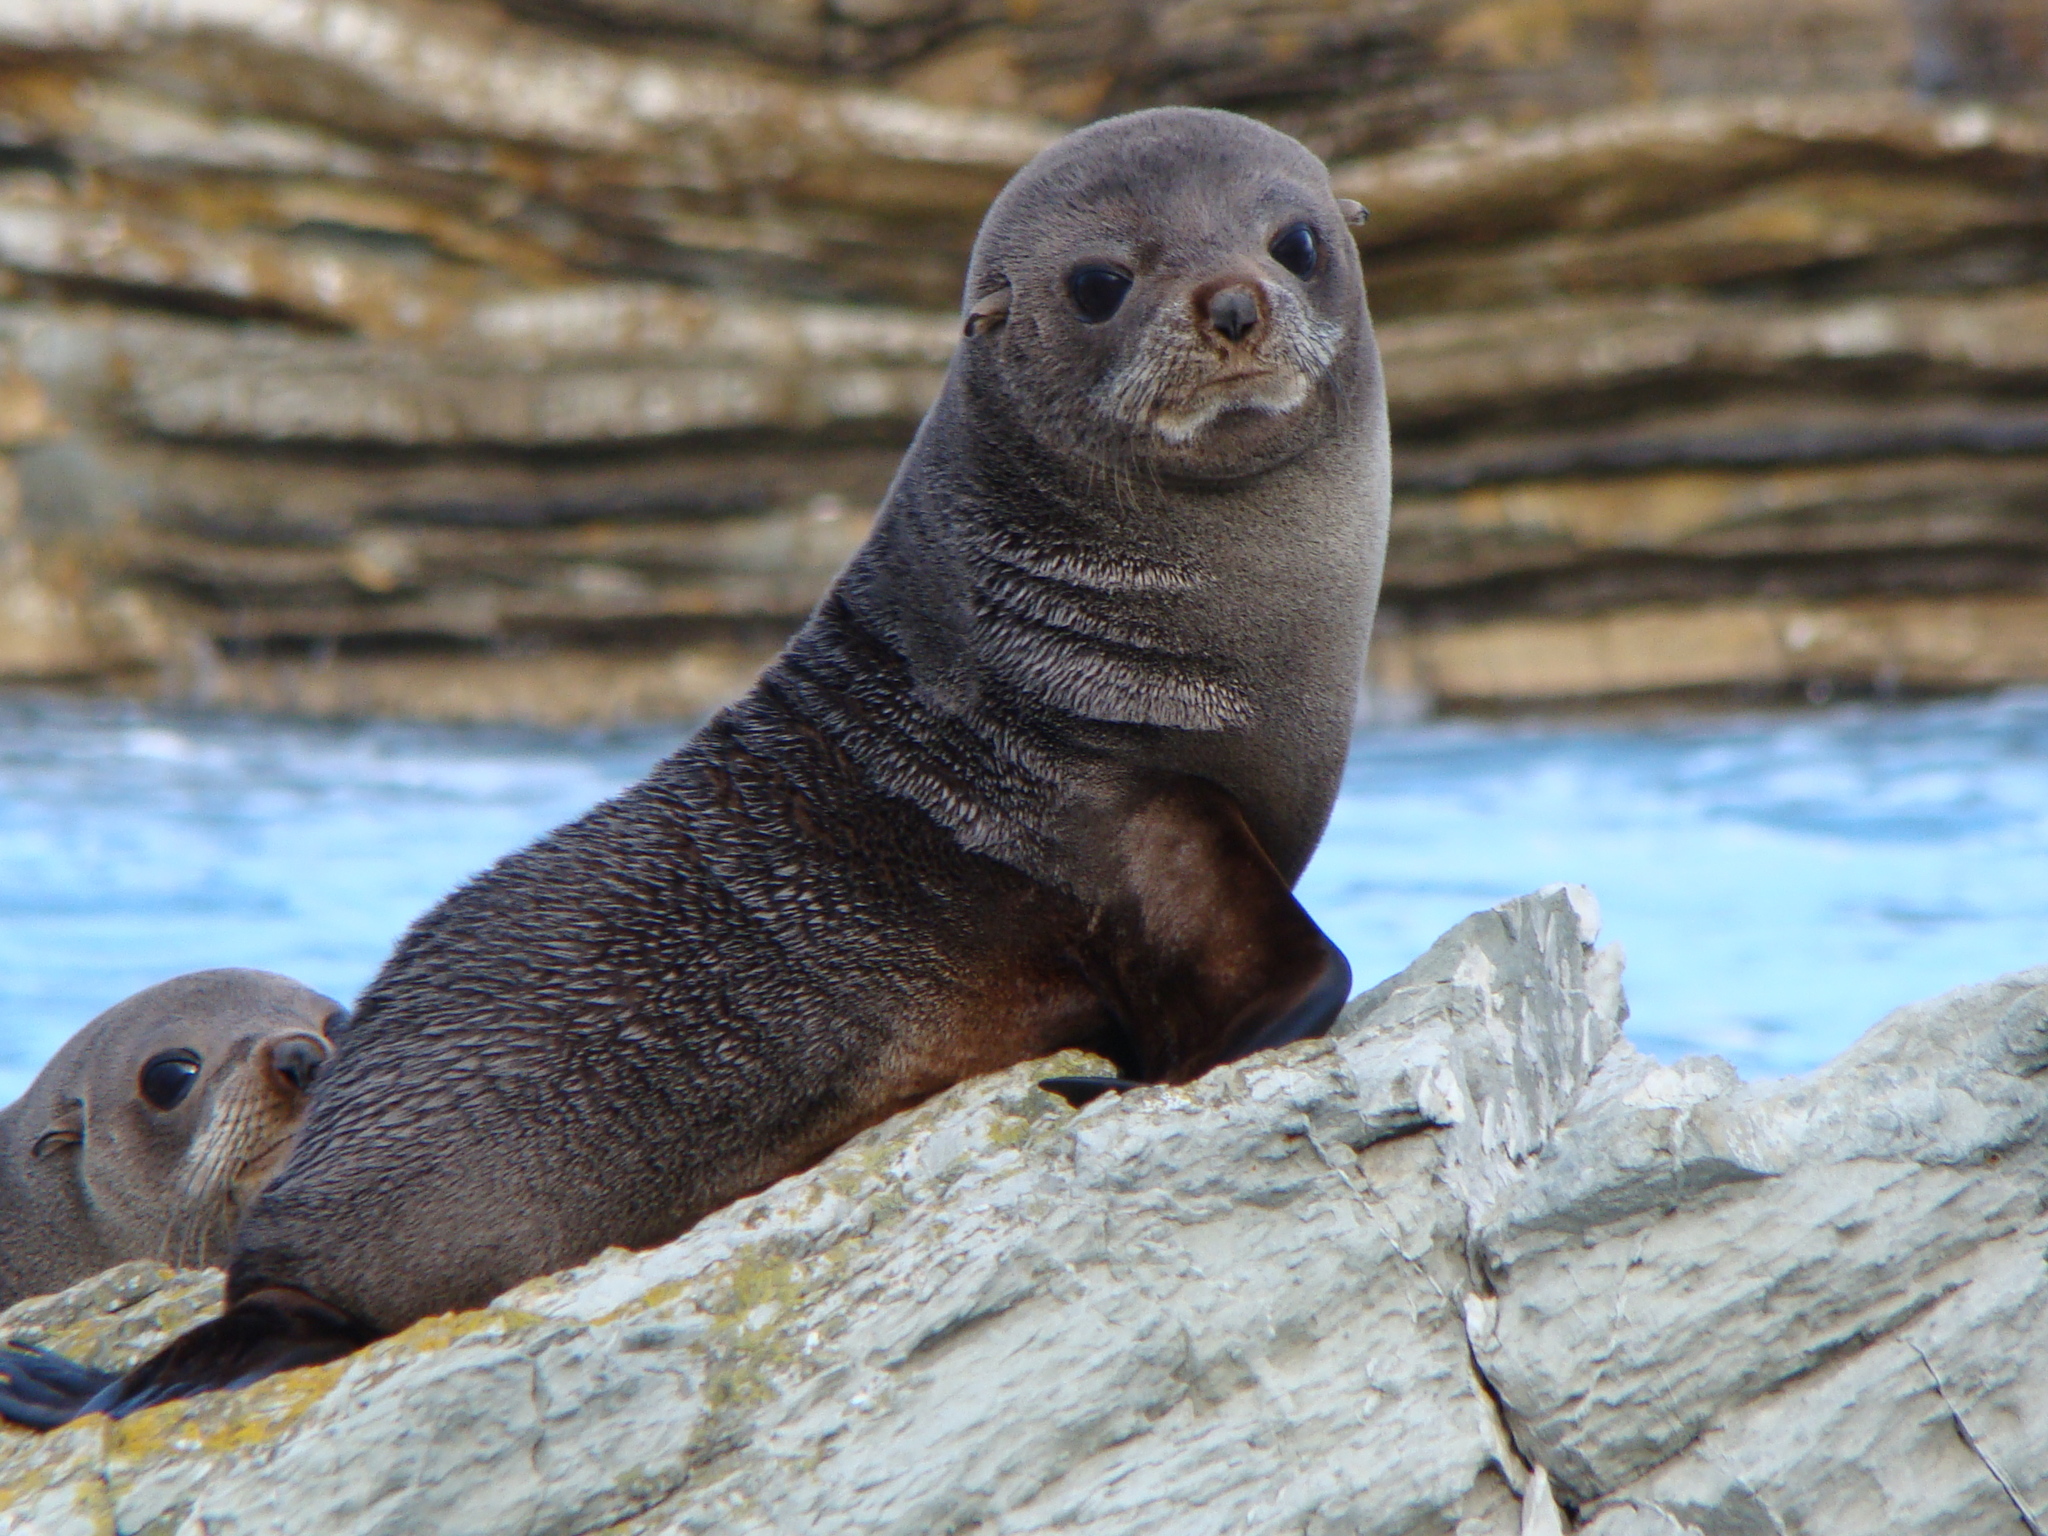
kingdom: Animalia
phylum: Chordata
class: Mammalia
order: Carnivora
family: Otariidae
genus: Arctocephalus
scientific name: Arctocephalus forsteri
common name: New zealand fur seal
